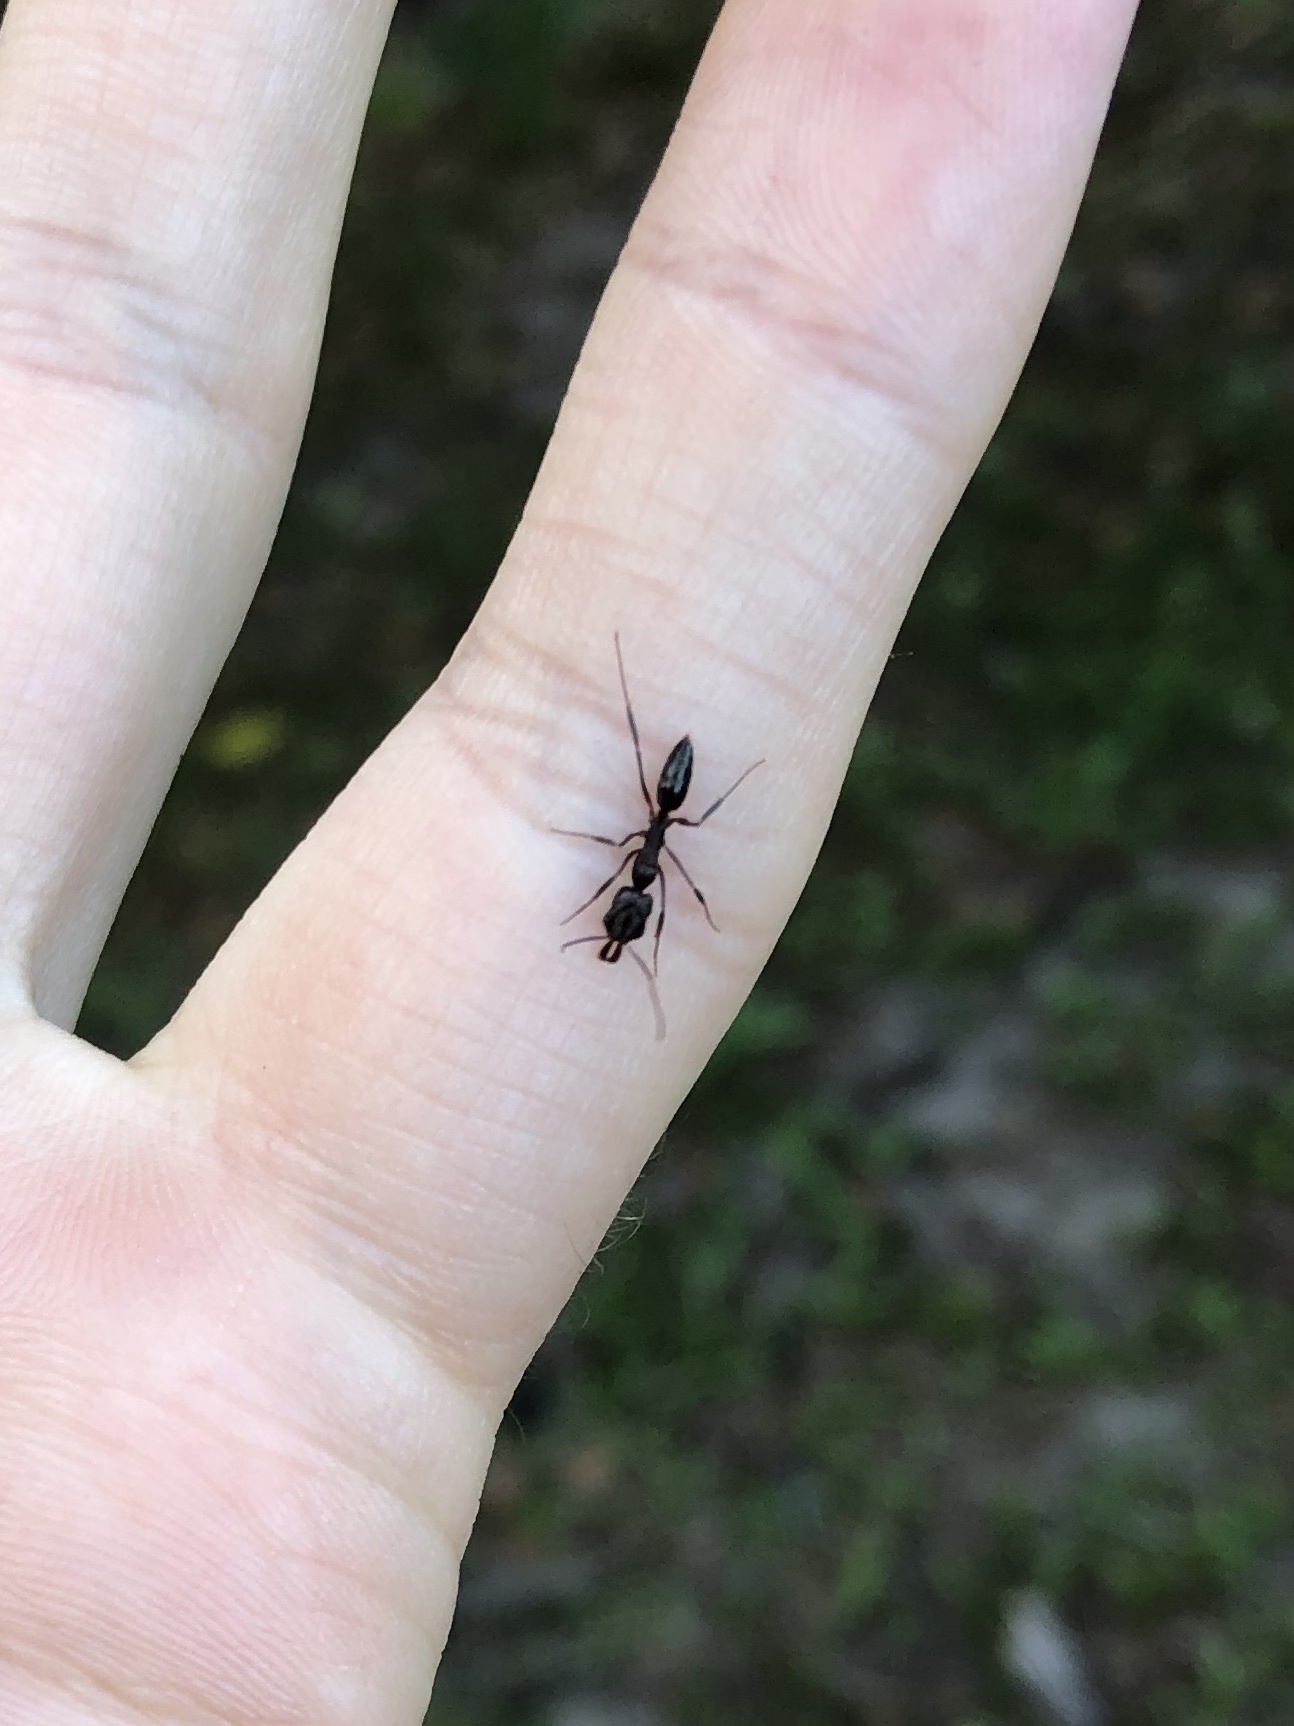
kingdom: Animalia
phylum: Arthropoda
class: Insecta
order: Hymenoptera
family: Formicidae
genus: Odontomachus
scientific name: Odontomachus brunneus
